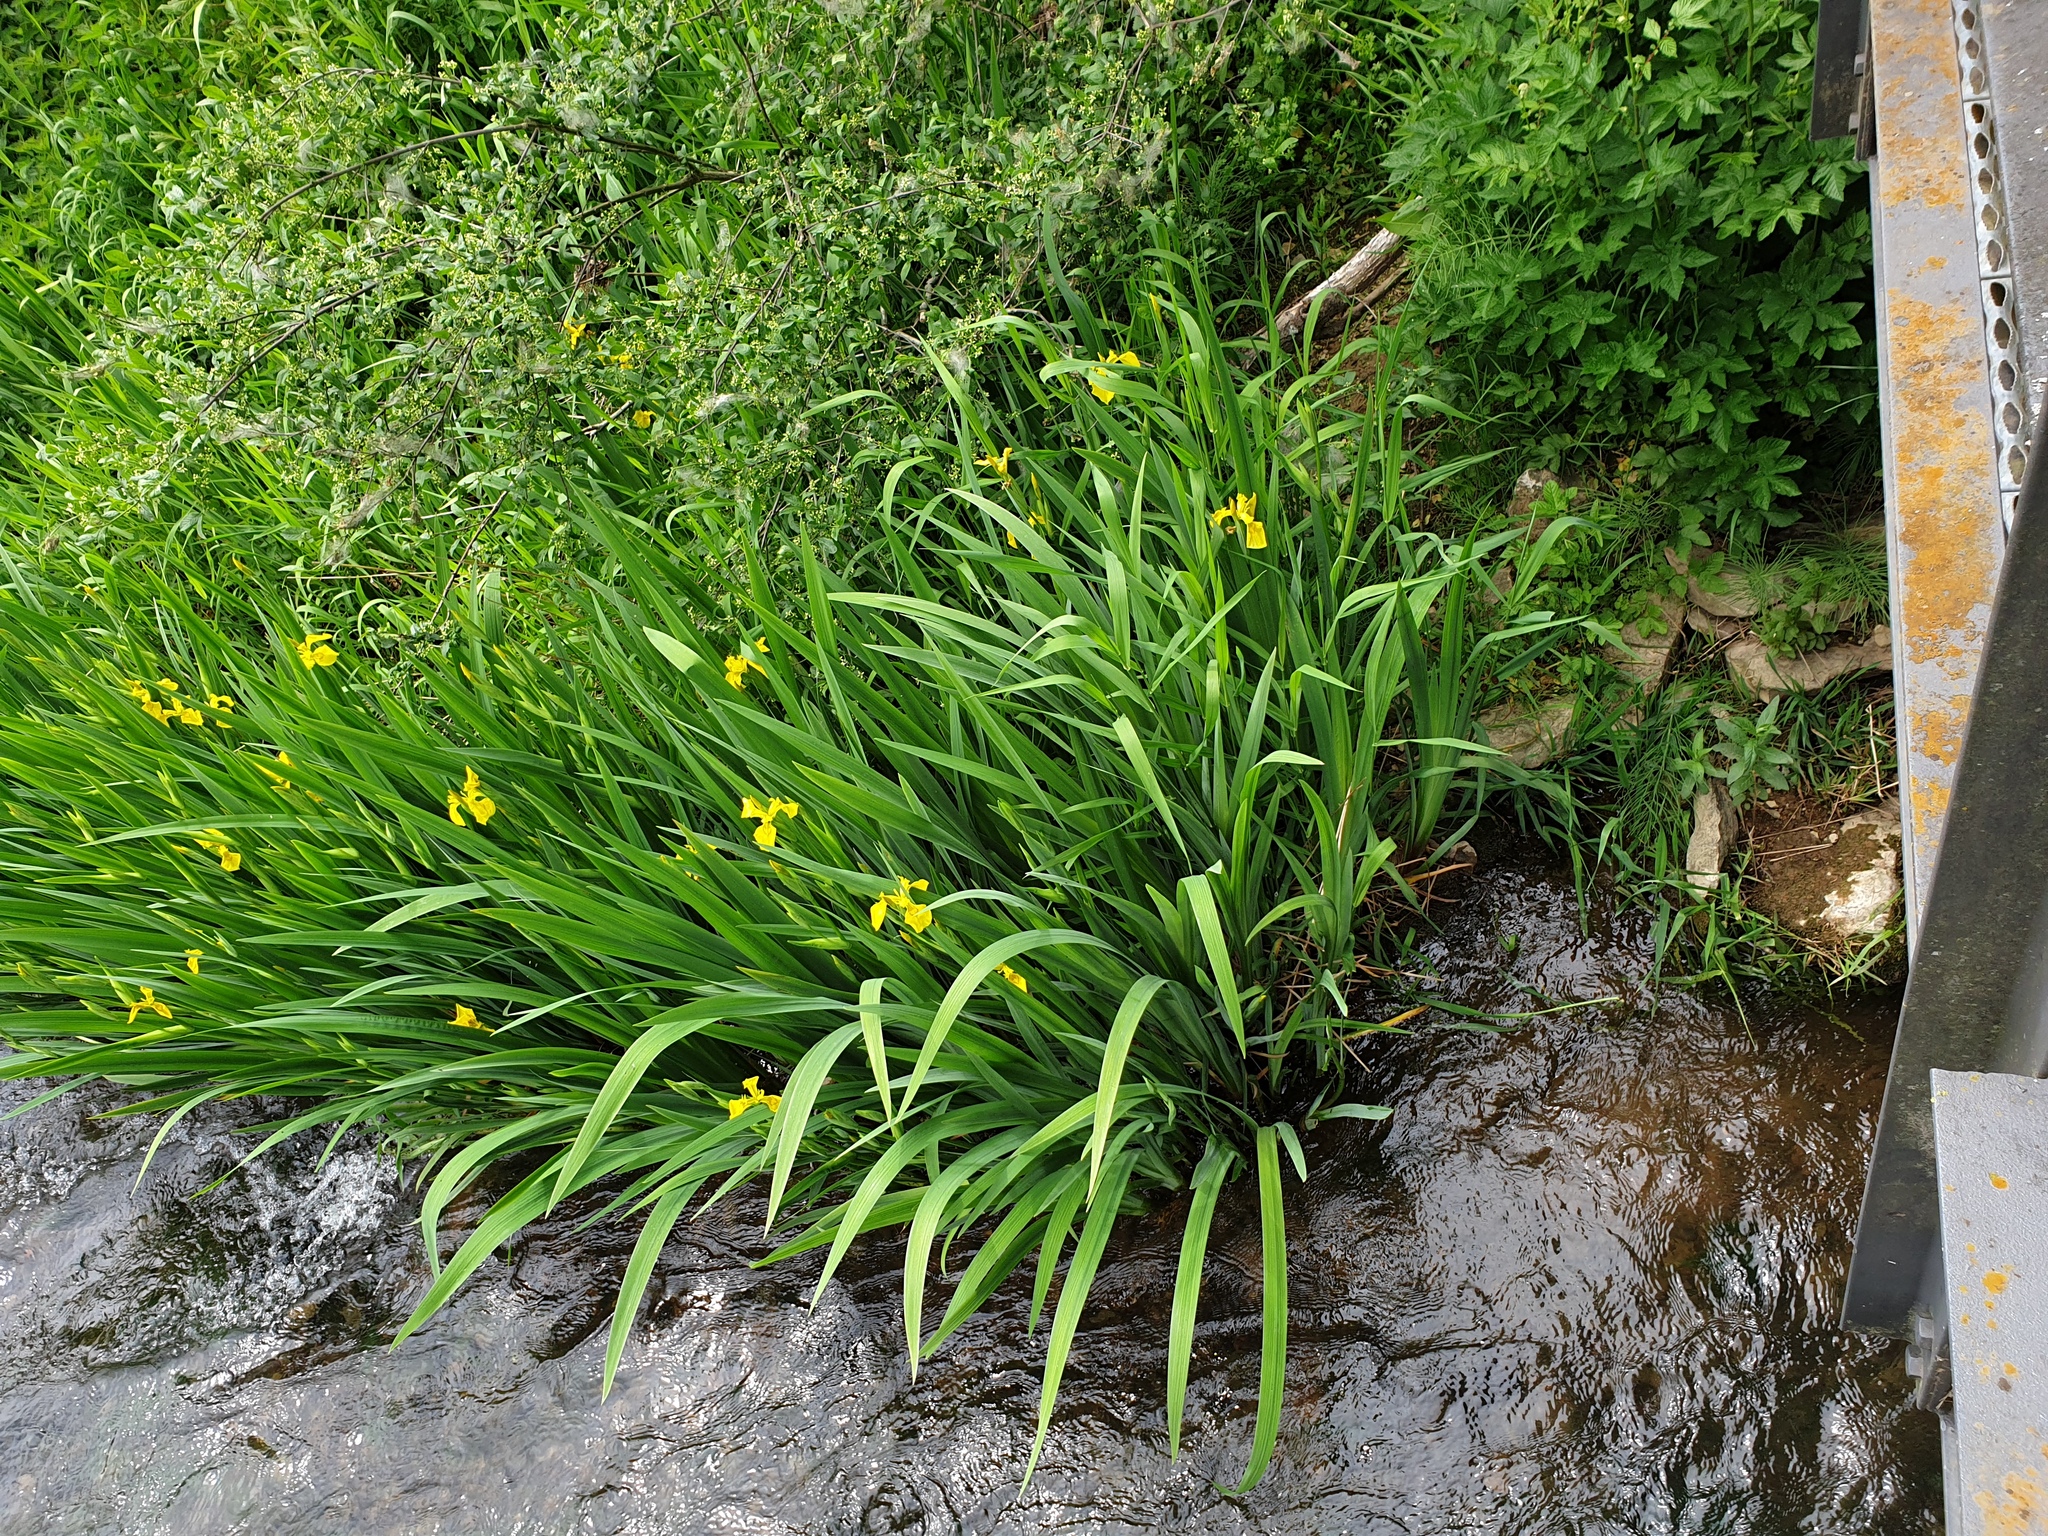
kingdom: Plantae
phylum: Tracheophyta
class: Liliopsida
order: Asparagales
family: Iridaceae
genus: Iris
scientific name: Iris pseudacorus
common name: Yellow flag
